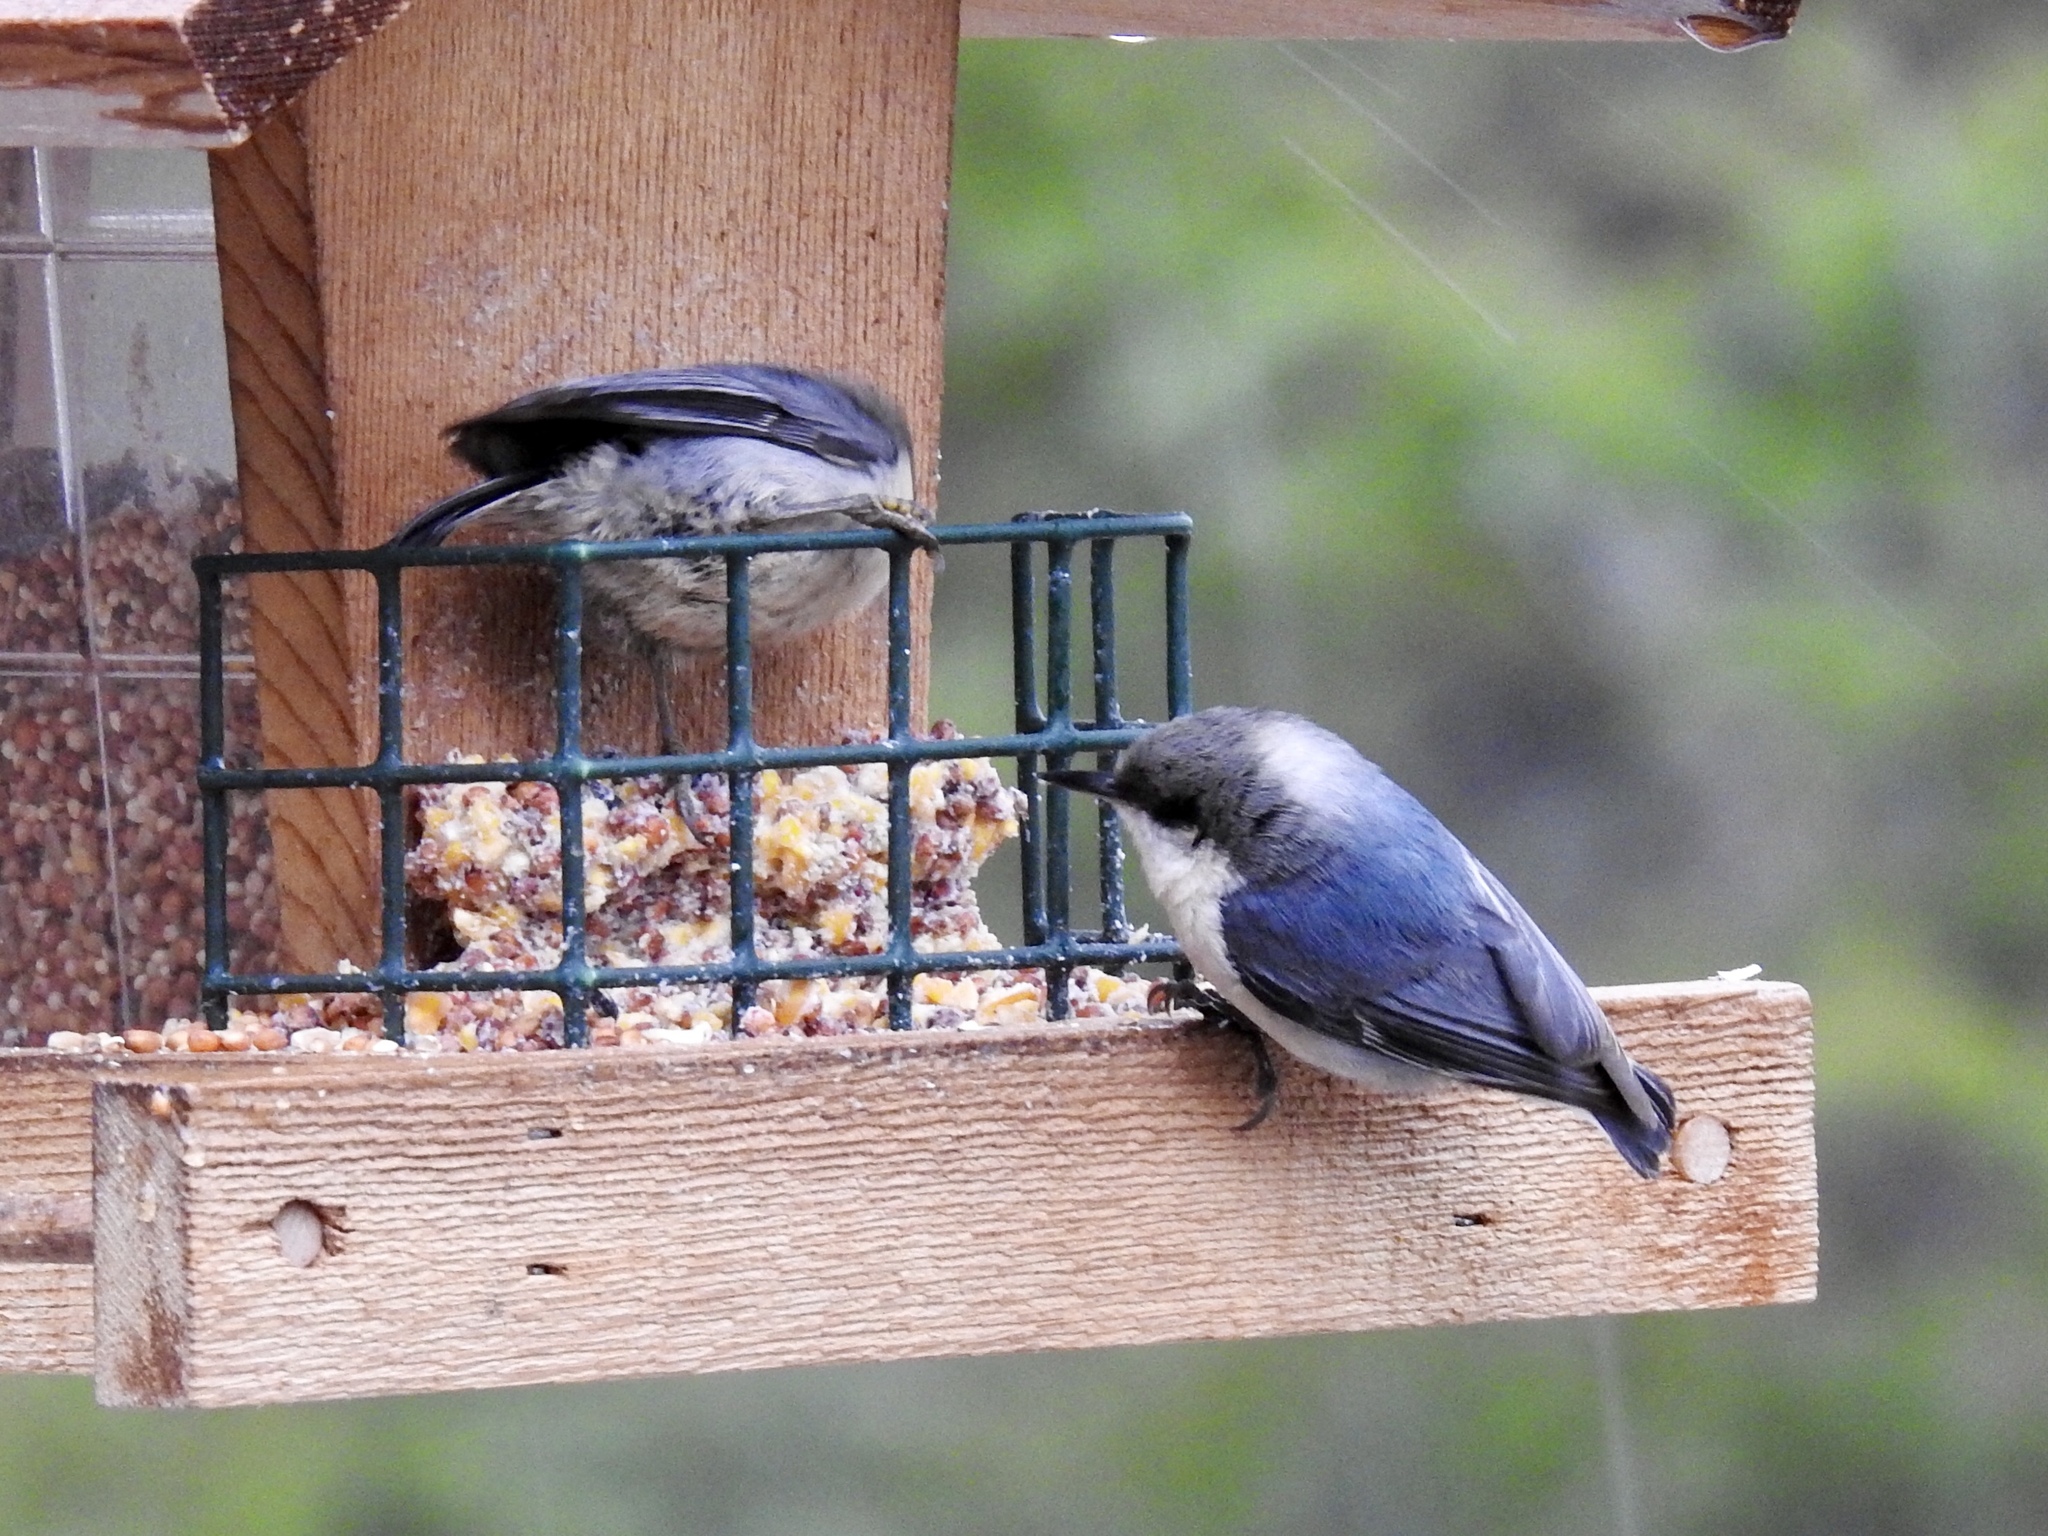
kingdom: Animalia
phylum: Chordata
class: Aves
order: Passeriformes
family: Sittidae
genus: Sitta
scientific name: Sitta pygmaea
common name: Pygmy nuthatch
